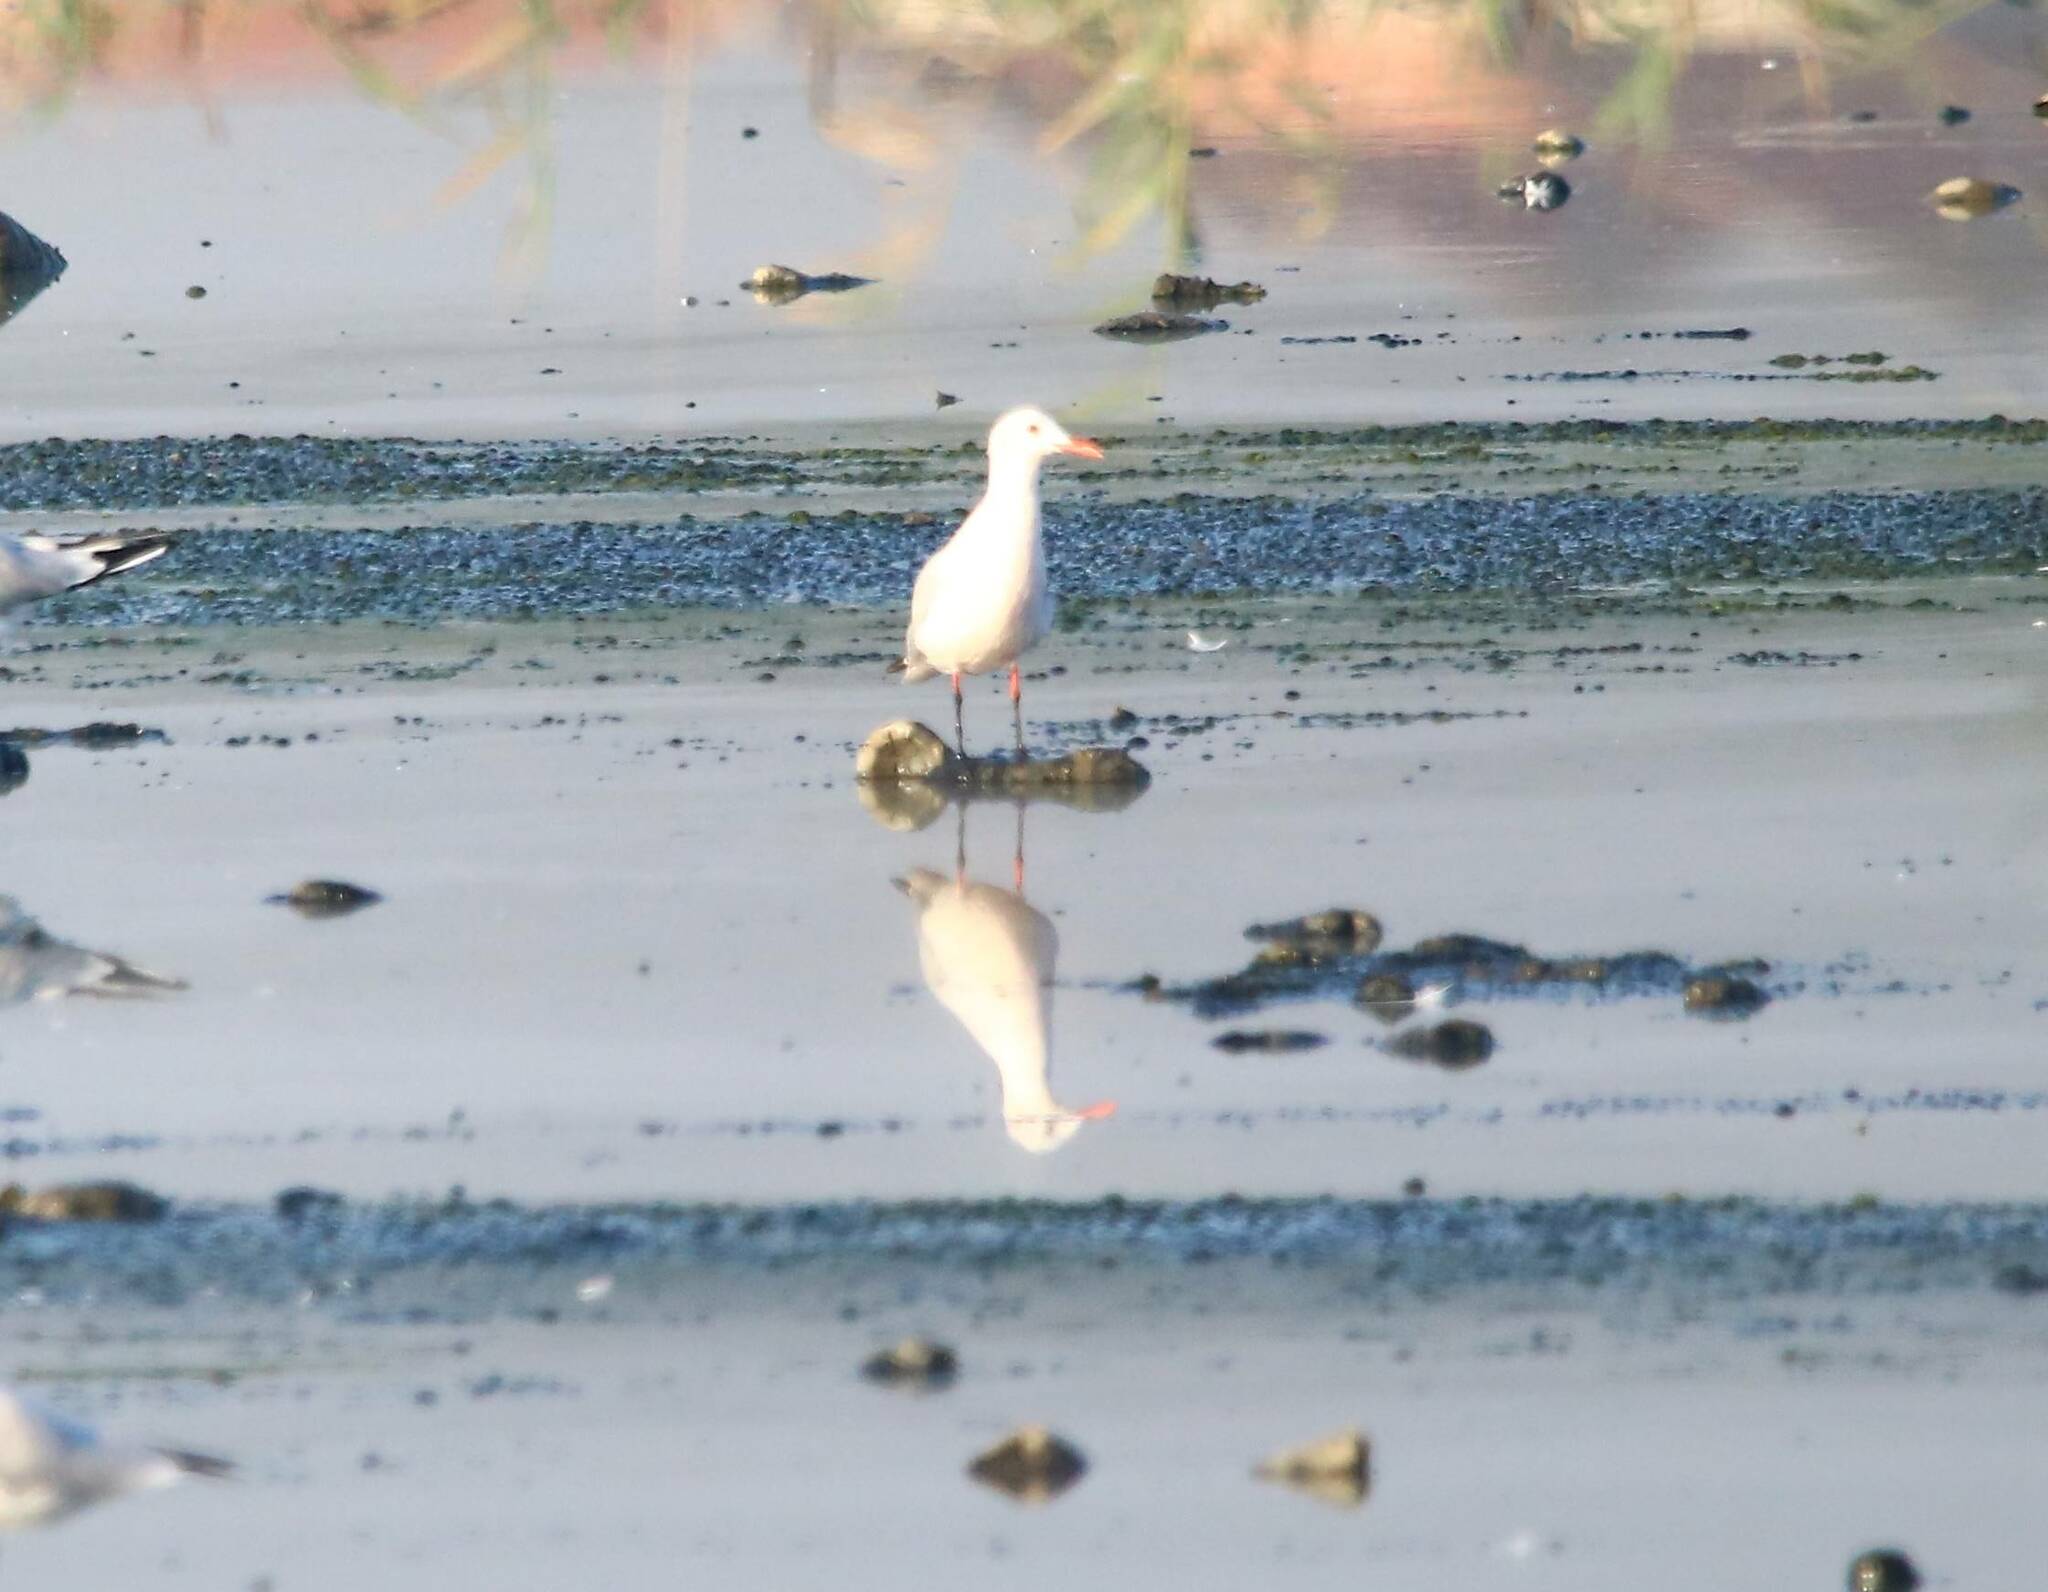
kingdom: Animalia
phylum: Chordata
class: Aves
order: Charadriiformes
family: Laridae
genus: Chroicocephalus
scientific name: Chroicocephalus genei
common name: Slender-billed gull
